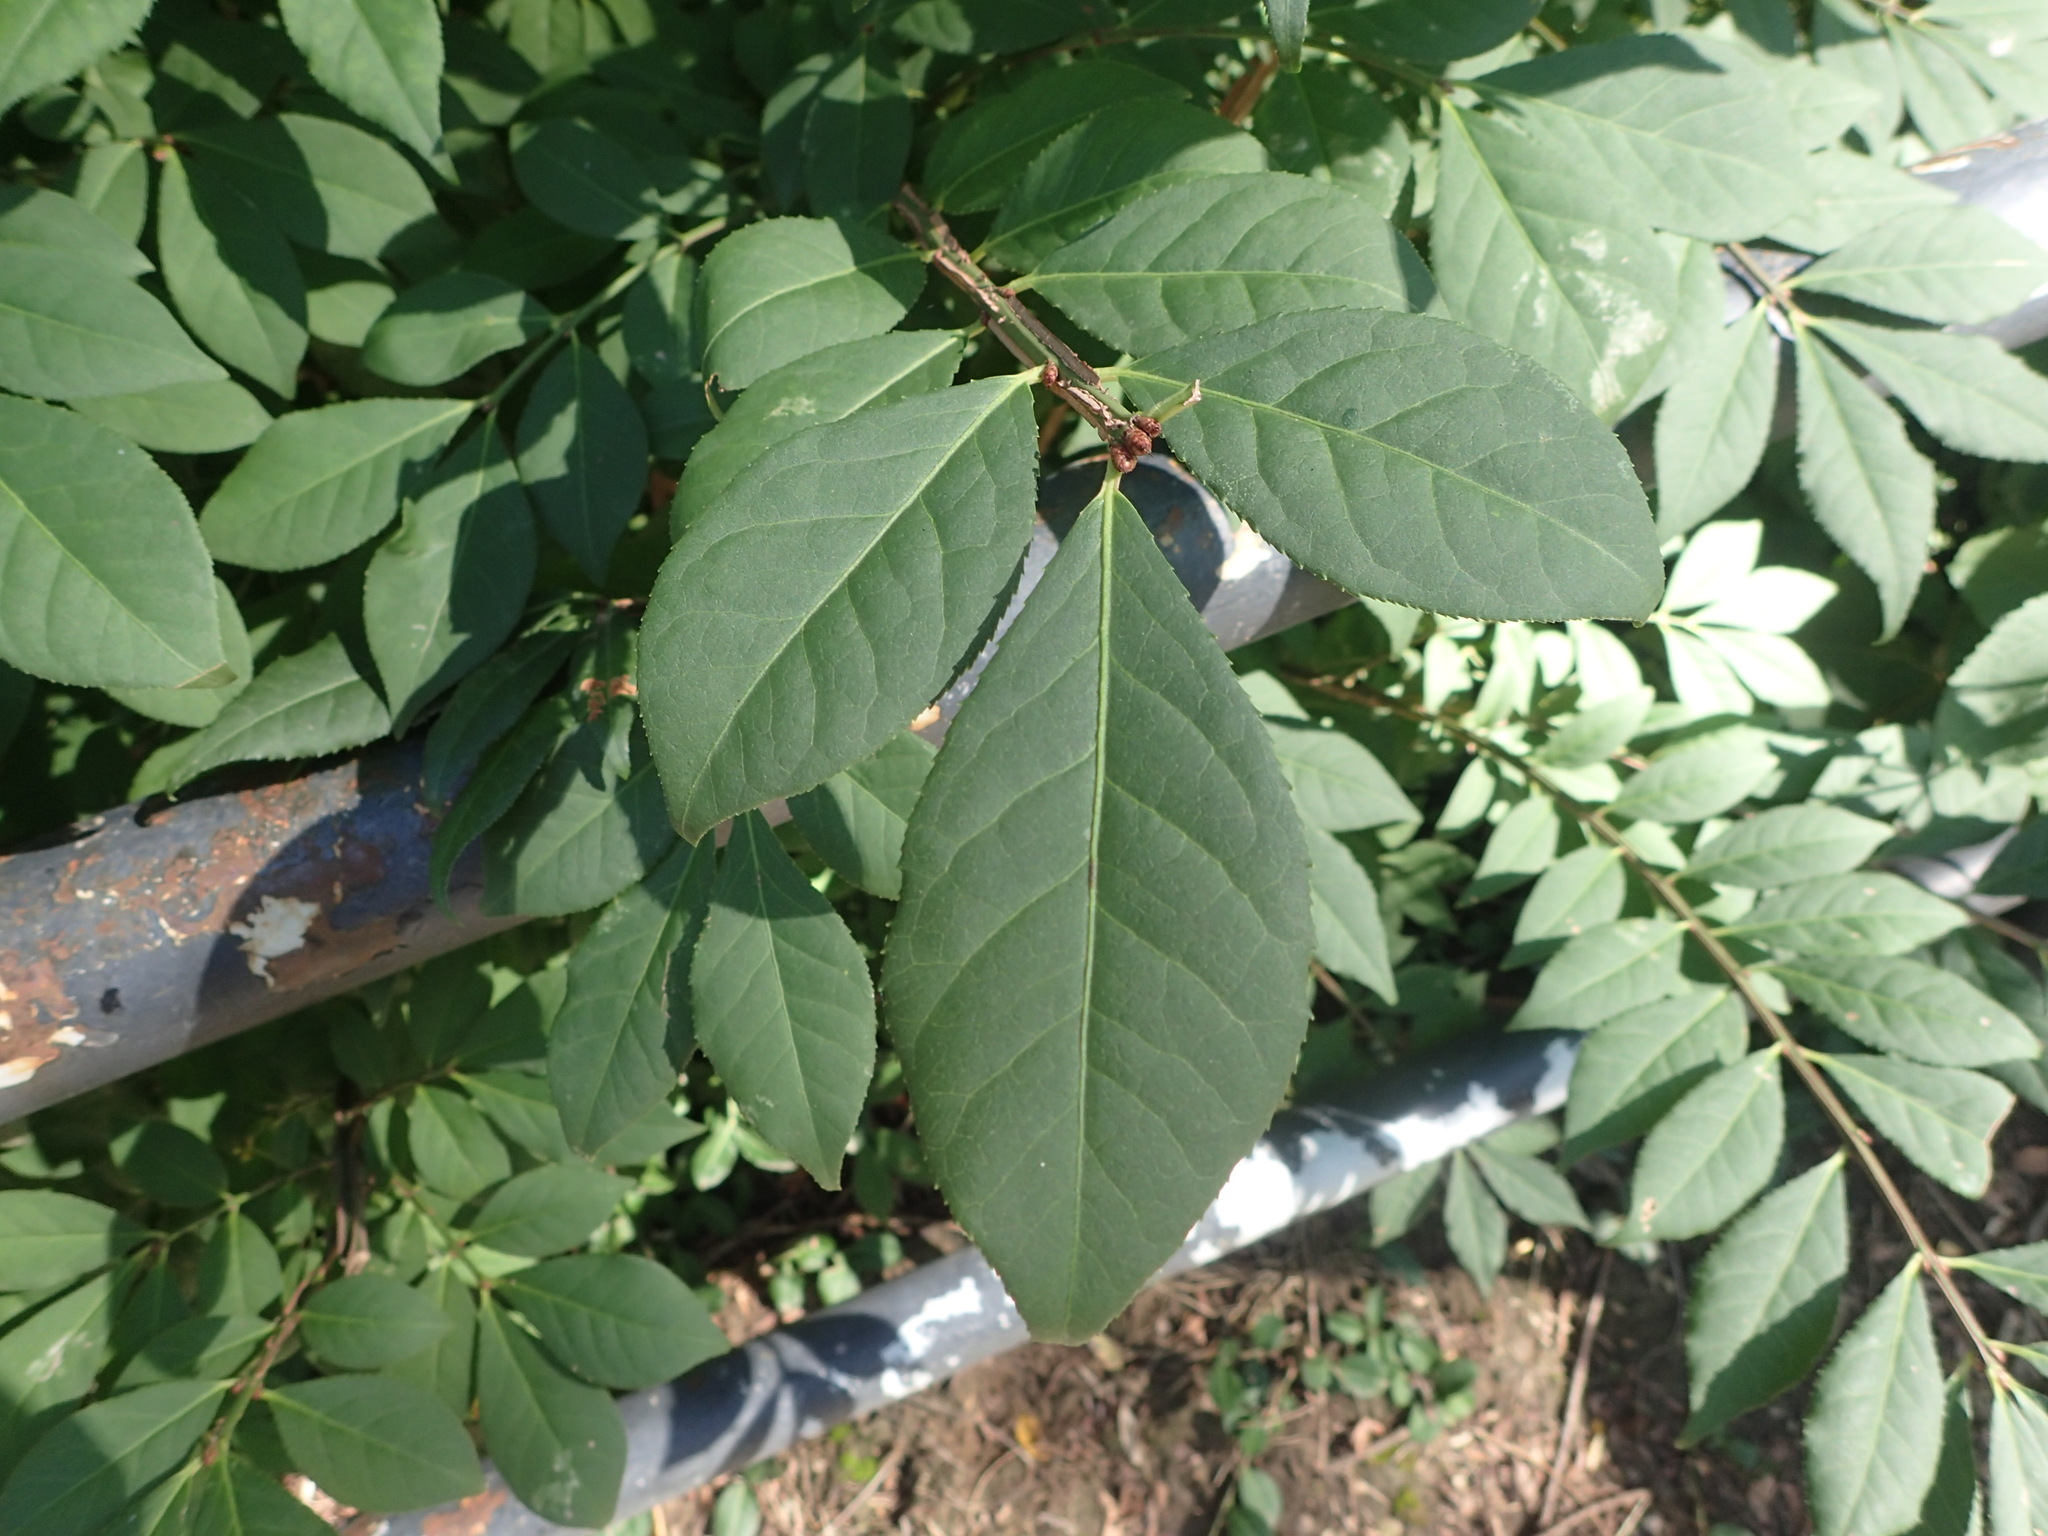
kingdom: Plantae
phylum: Tracheophyta
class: Magnoliopsida
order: Celastrales
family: Celastraceae
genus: Euonymus
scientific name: Euonymus alatus
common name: Winged euonymus
